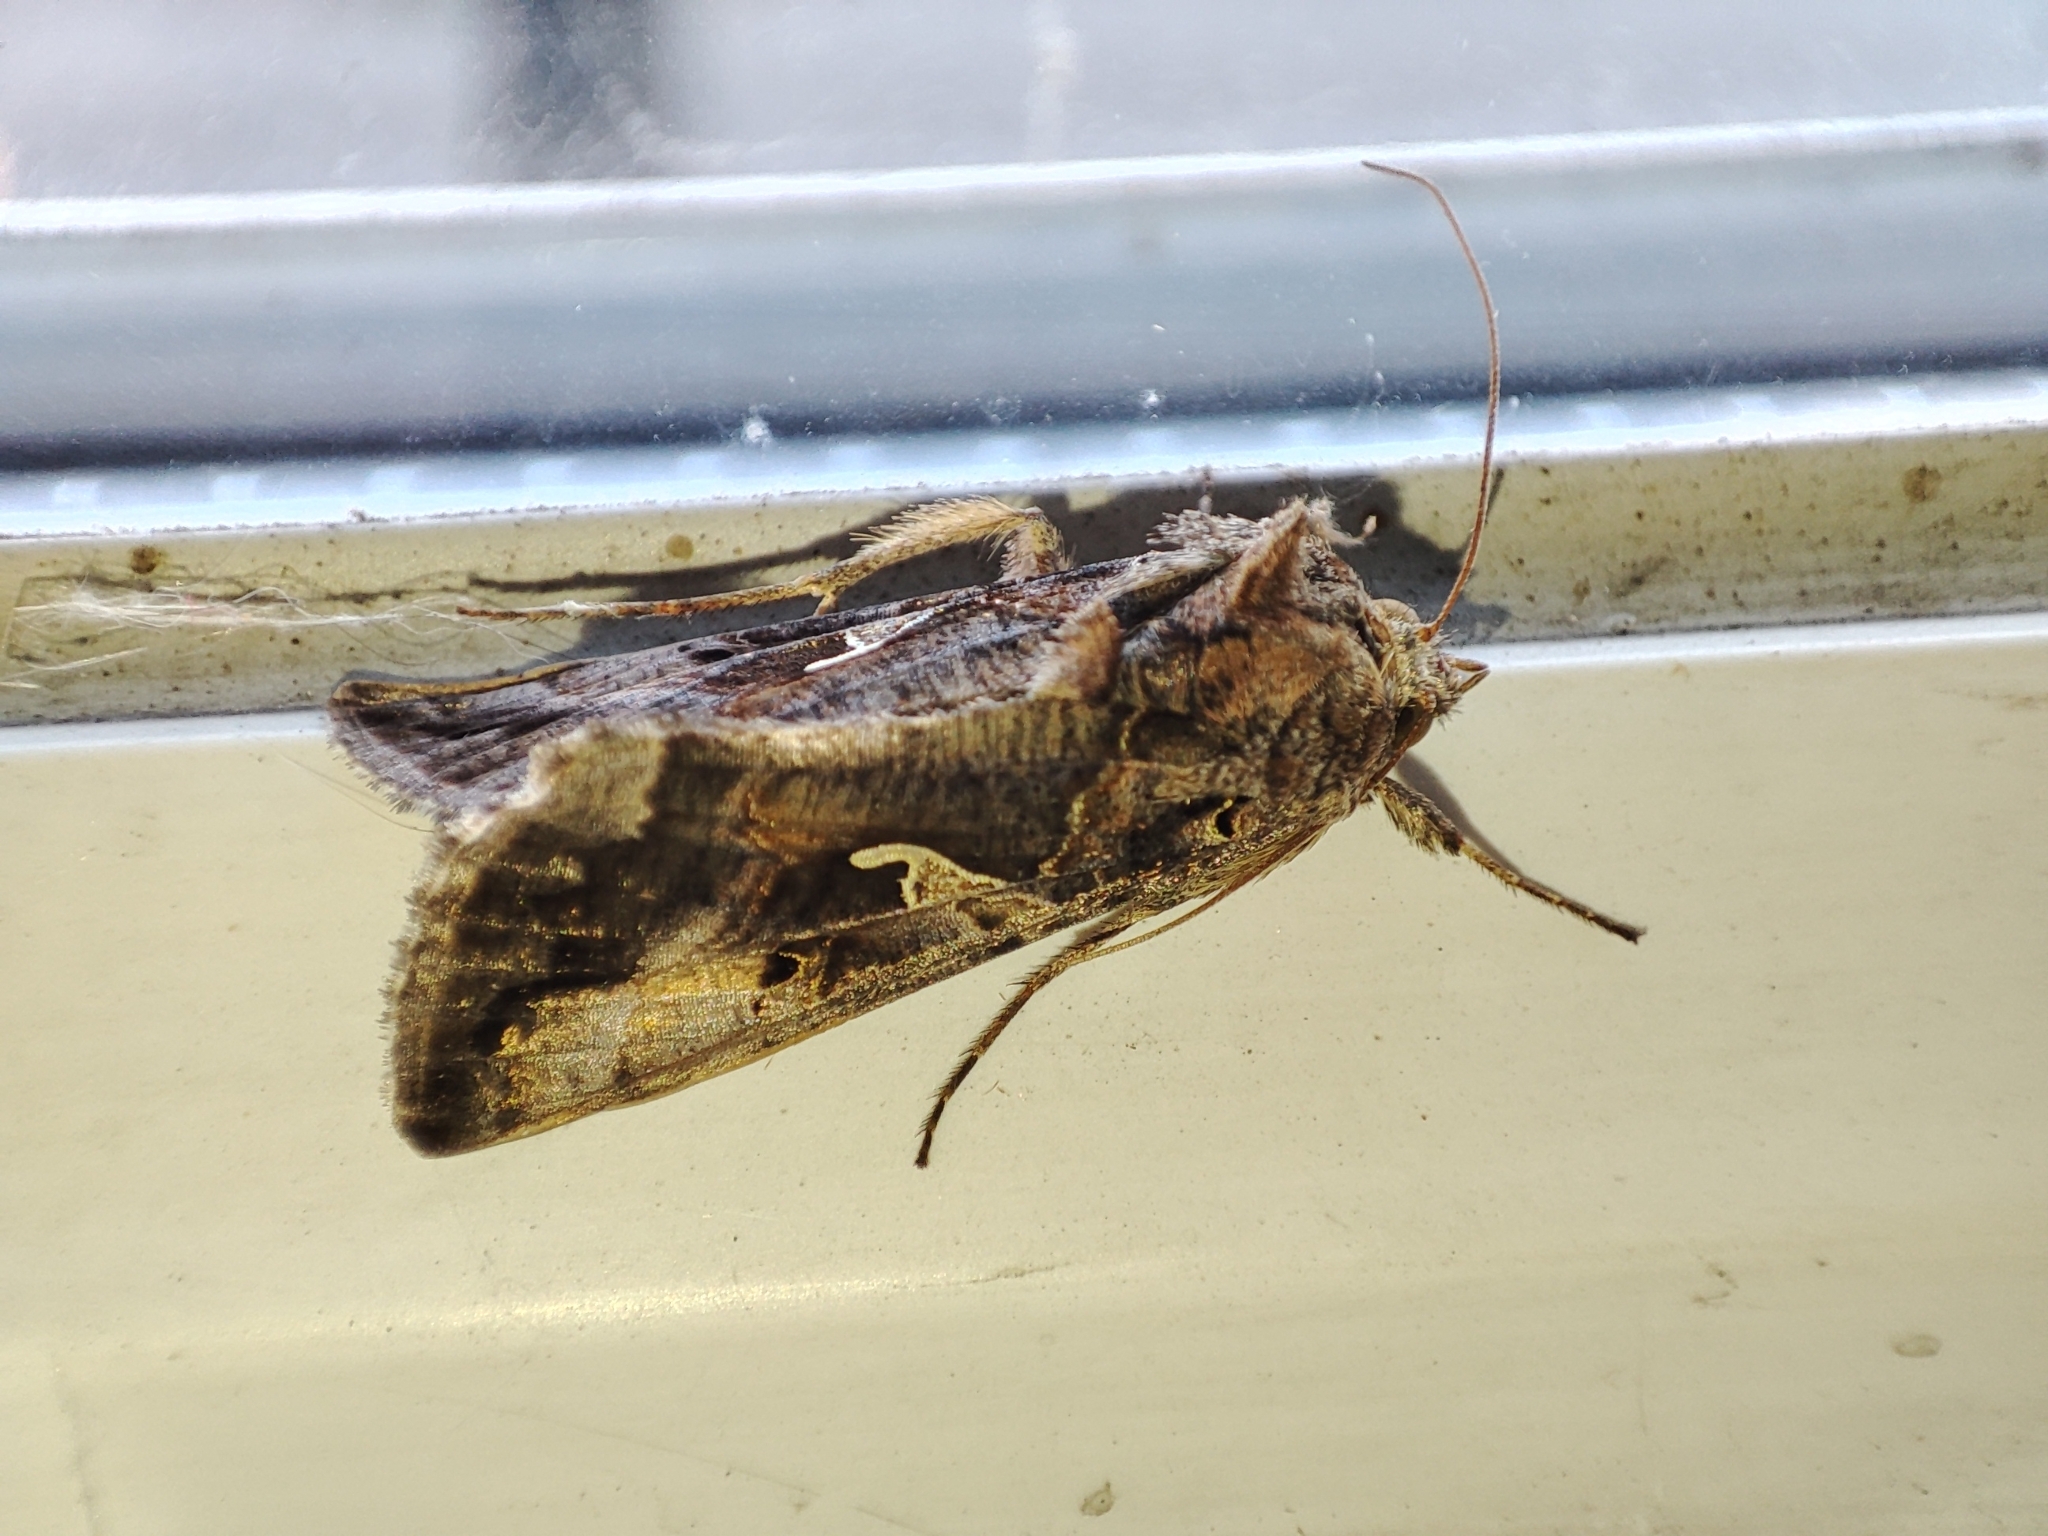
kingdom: Animalia
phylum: Arthropoda
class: Insecta
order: Lepidoptera
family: Noctuidae
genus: Autographa
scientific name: Autographa gamma
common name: Silver y
